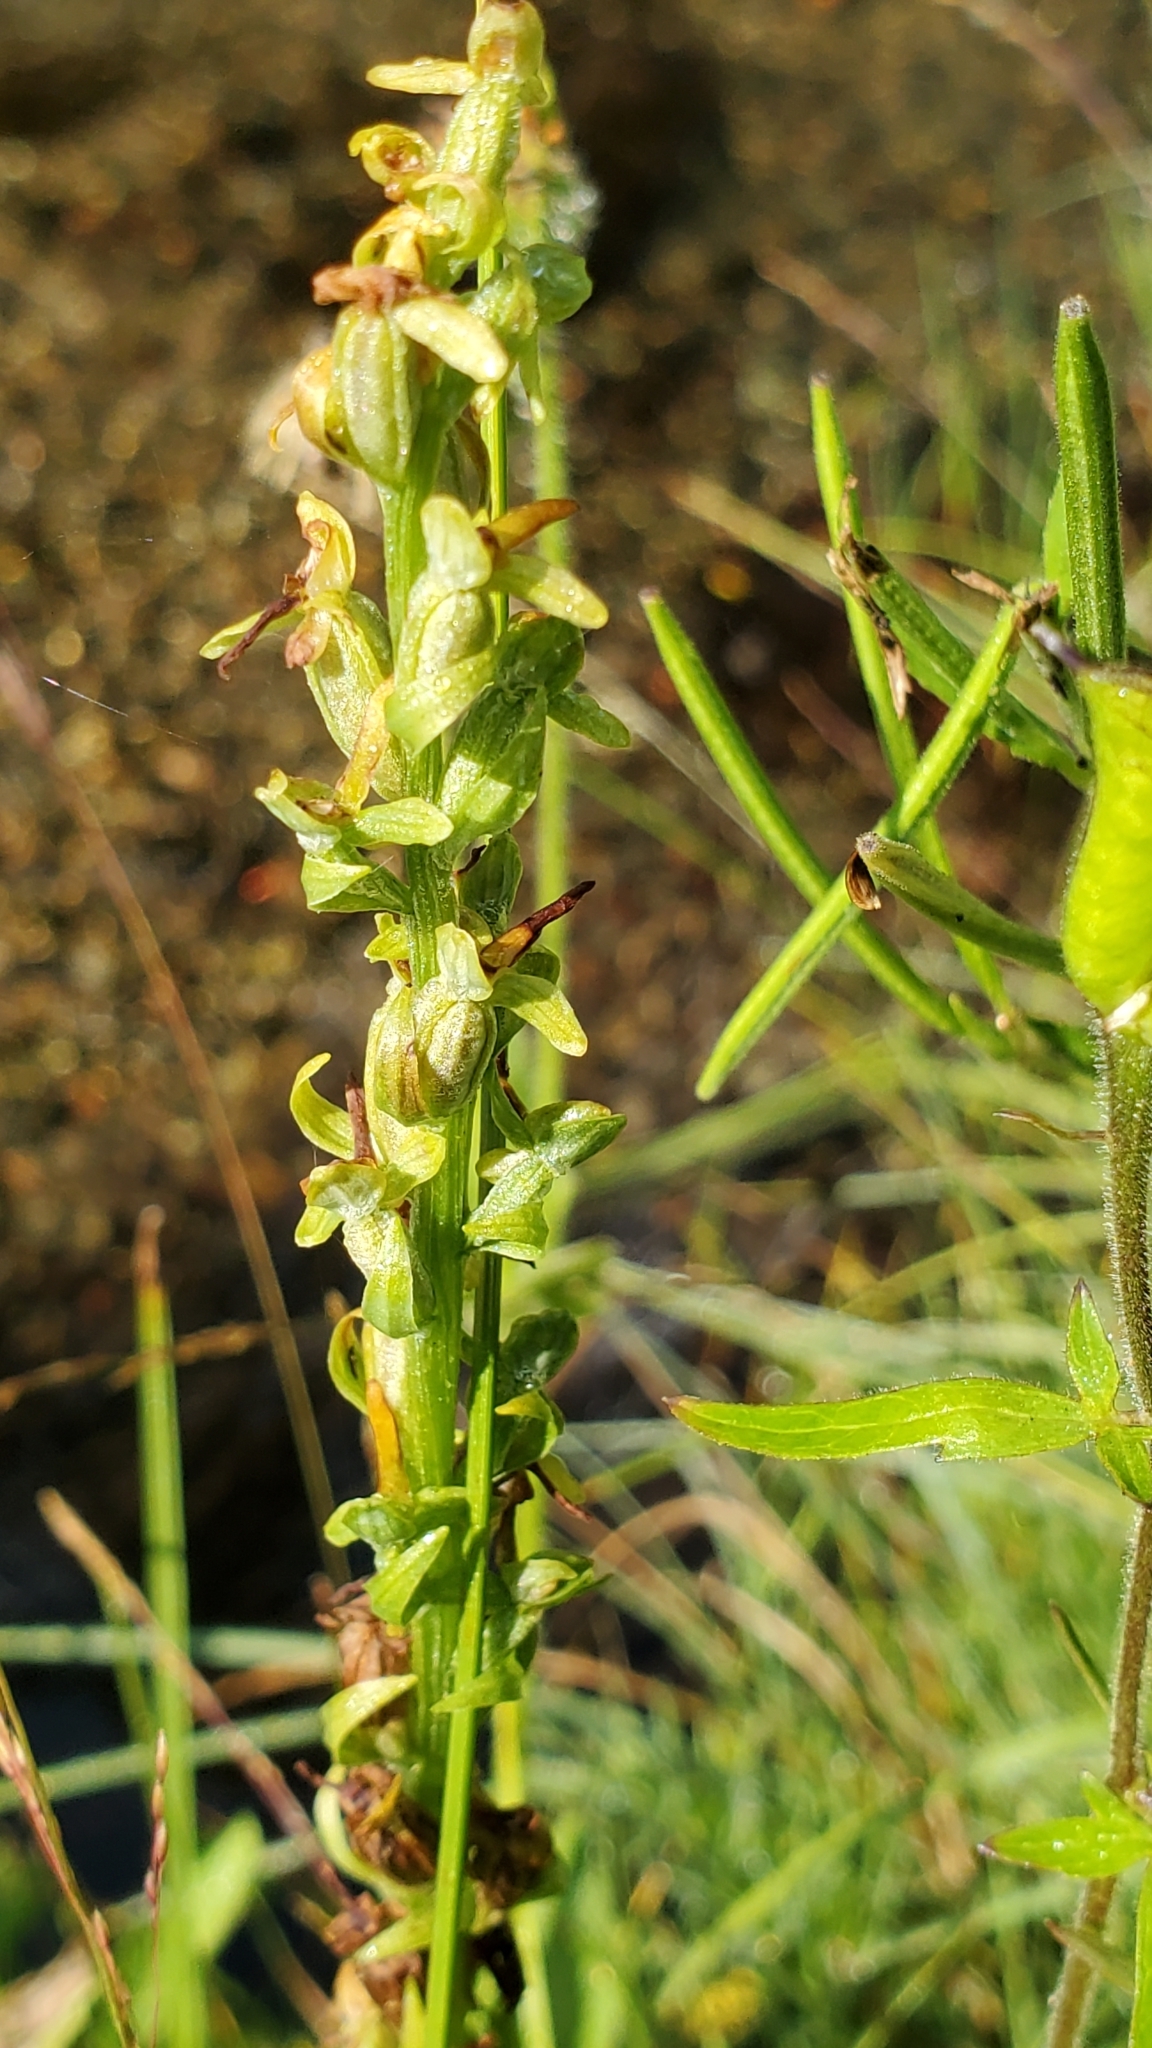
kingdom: Plantae
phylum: Tracheophyta
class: Liliopsida
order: Asparagales
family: Orchidaceae
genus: Platanthera
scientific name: Platanthera stricta
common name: Slender bog orchid
